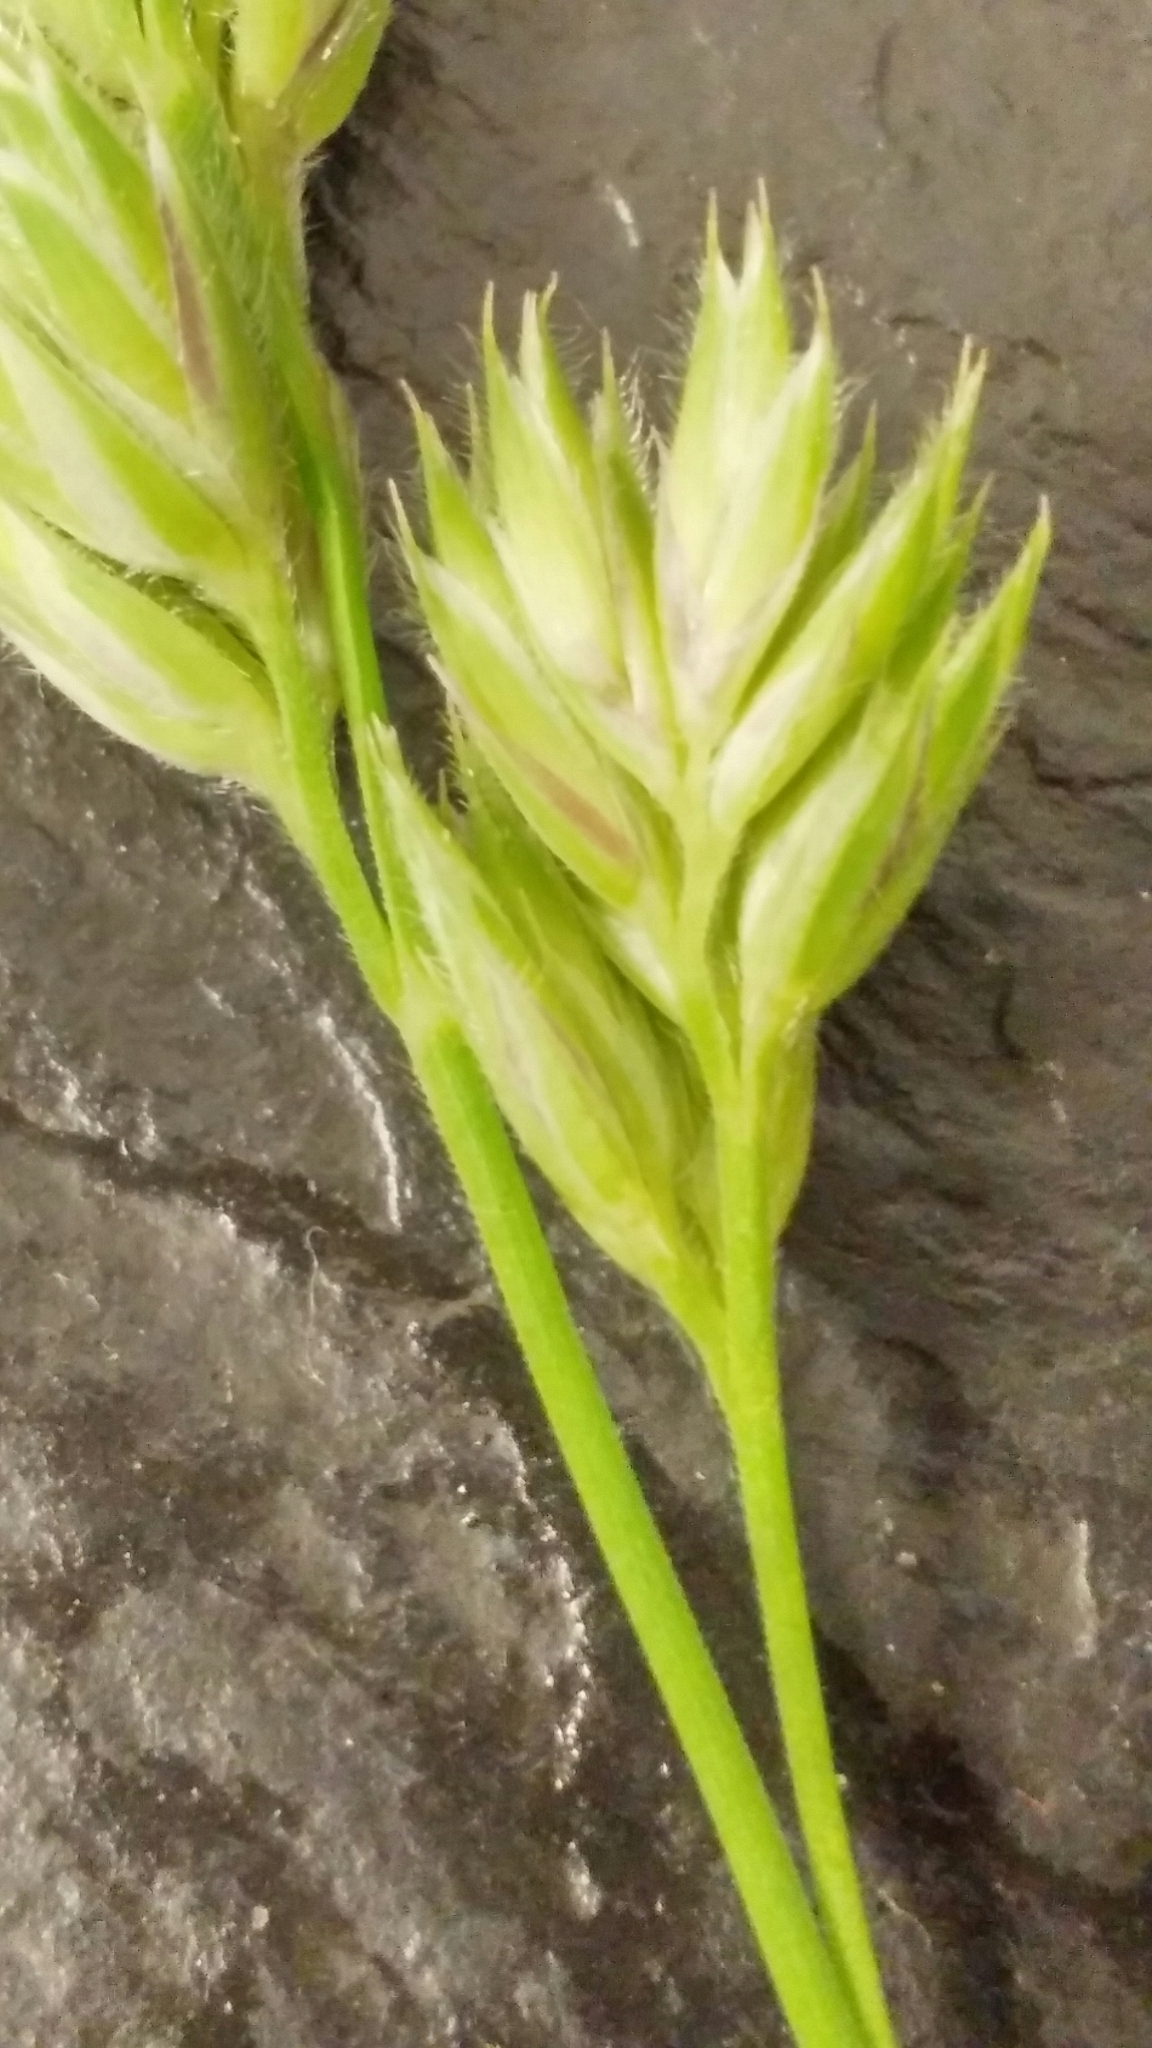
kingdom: Plantae
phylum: Tracheophyta
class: Liliopsida
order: Poales
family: Poaceae
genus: Dactylis
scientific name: Dactylis glomerata
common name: Orchardgrass
